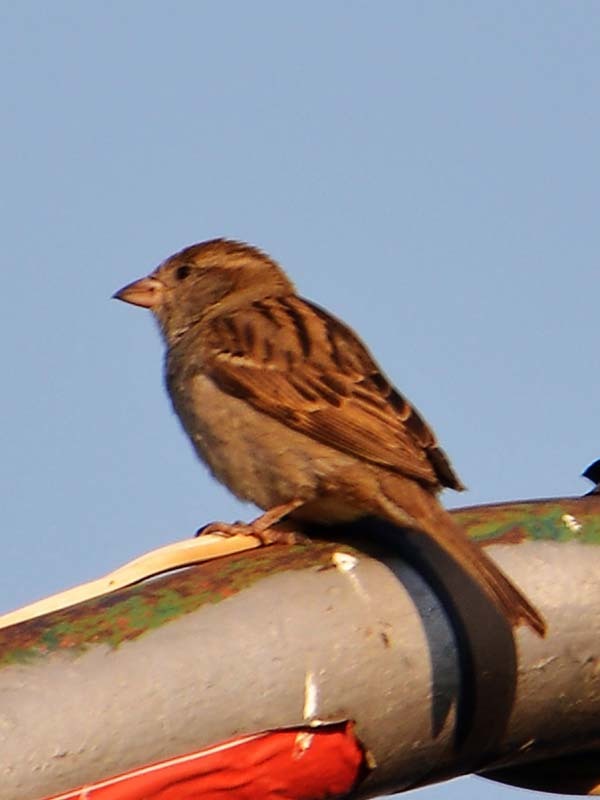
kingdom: Animalia
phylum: Chordata
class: Aves
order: Passeriformes
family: Passeridae
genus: Passer
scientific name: Passer domesticus
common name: House sparrow
